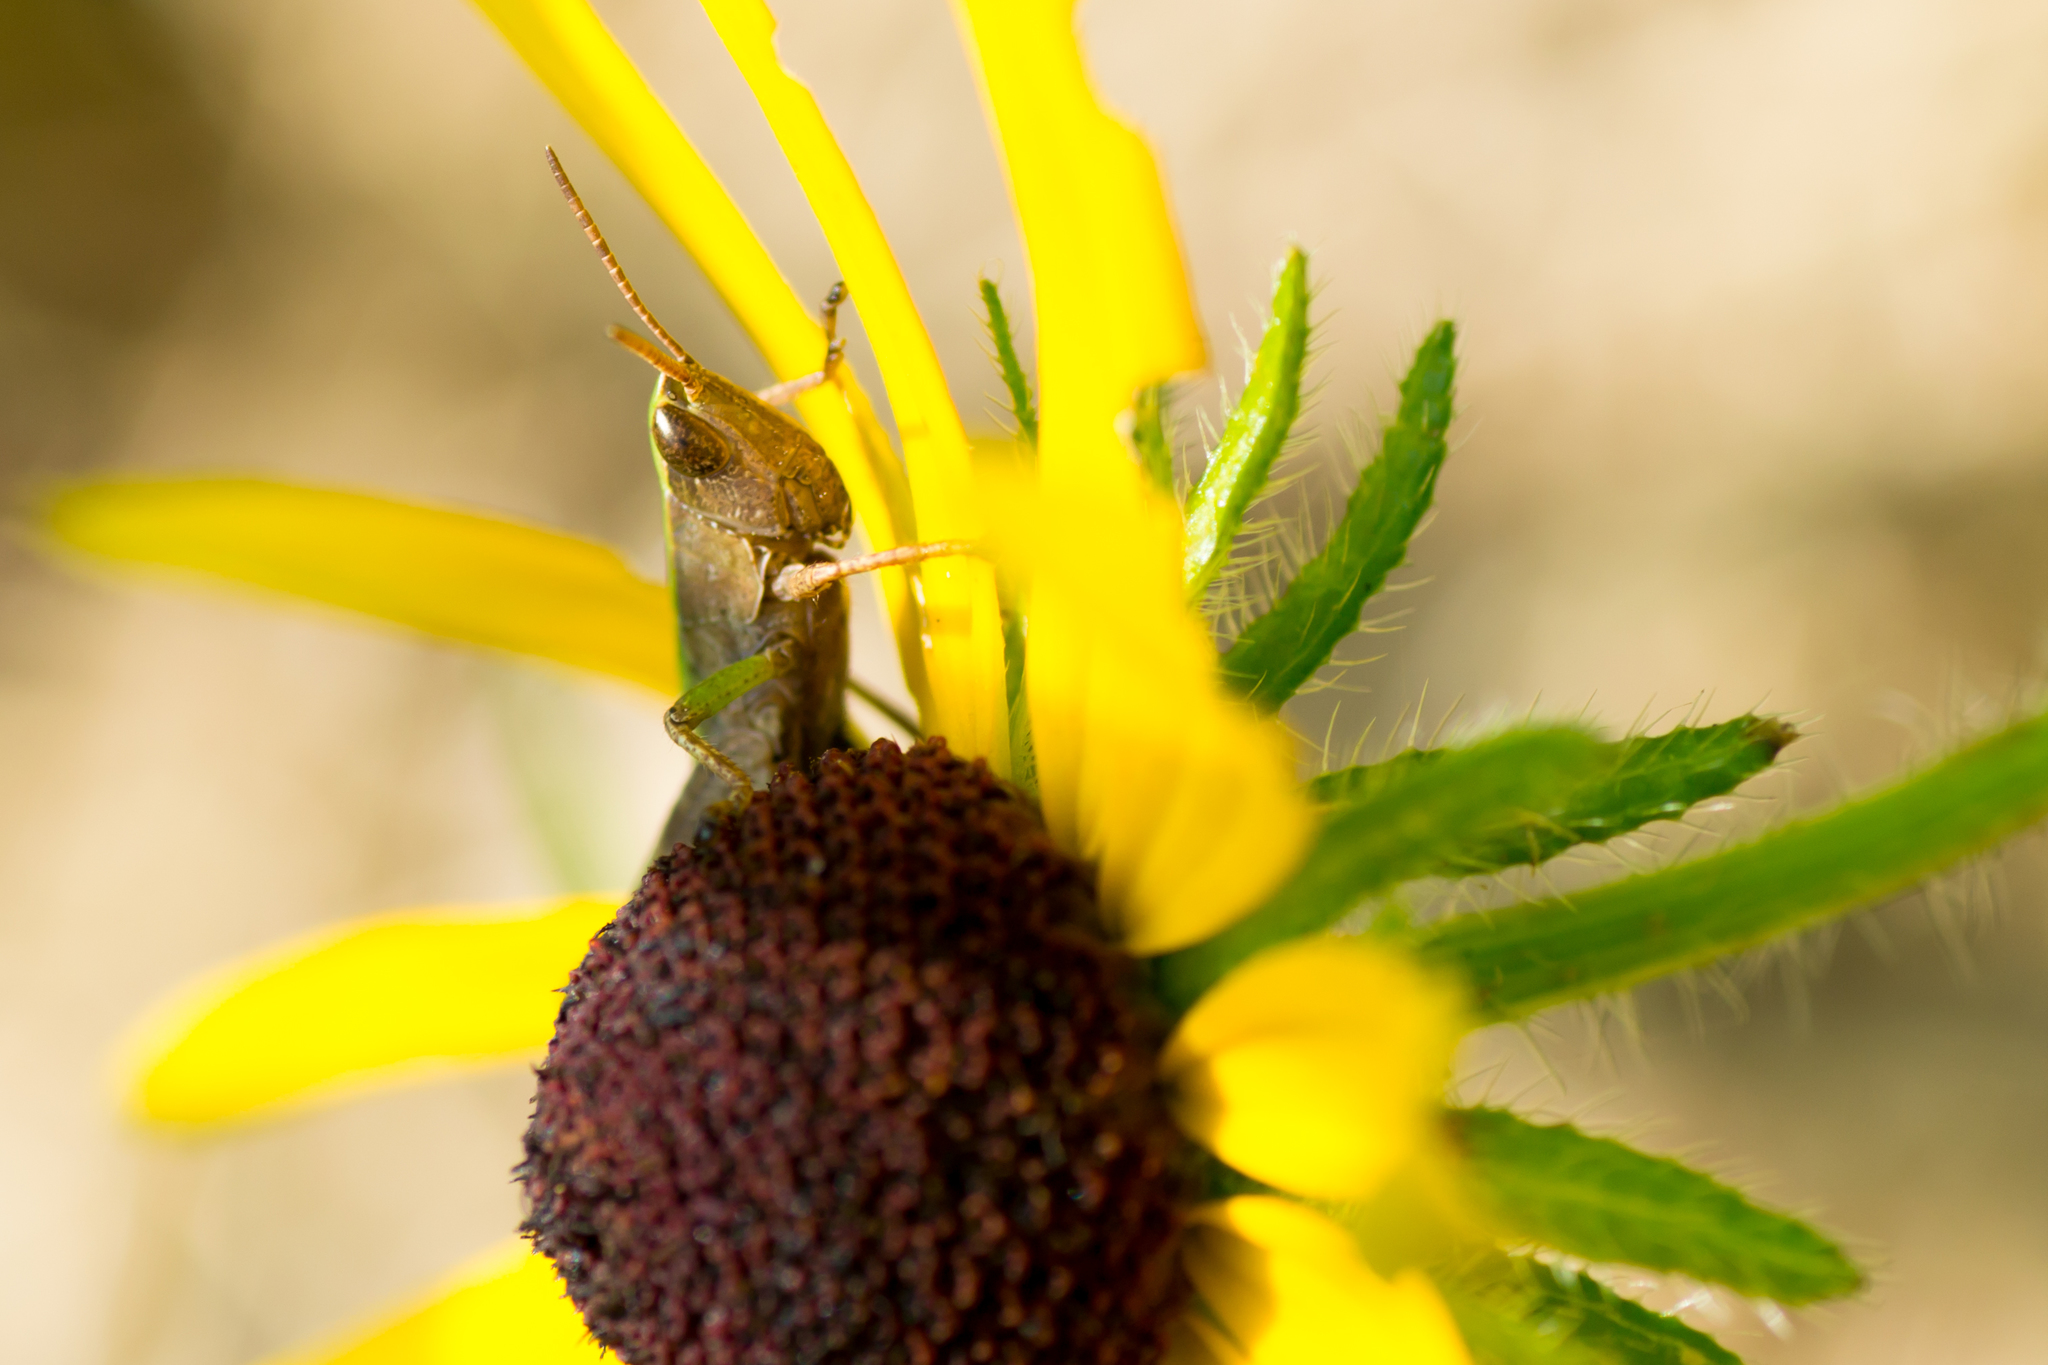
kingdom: Animalia
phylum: Arthropoda
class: Insecta
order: Orthoptera
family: Acrididae
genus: Dichromorpha
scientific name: Dichromorpha viridis
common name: Short-winged green grasshopper
